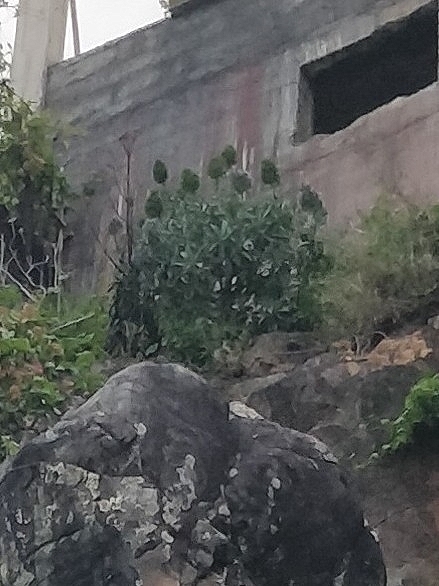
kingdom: Plantae
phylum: Tracheophyta
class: Magnoliopsida
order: Boraginales
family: Boraginaceae
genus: Echium
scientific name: Echium nervosum
